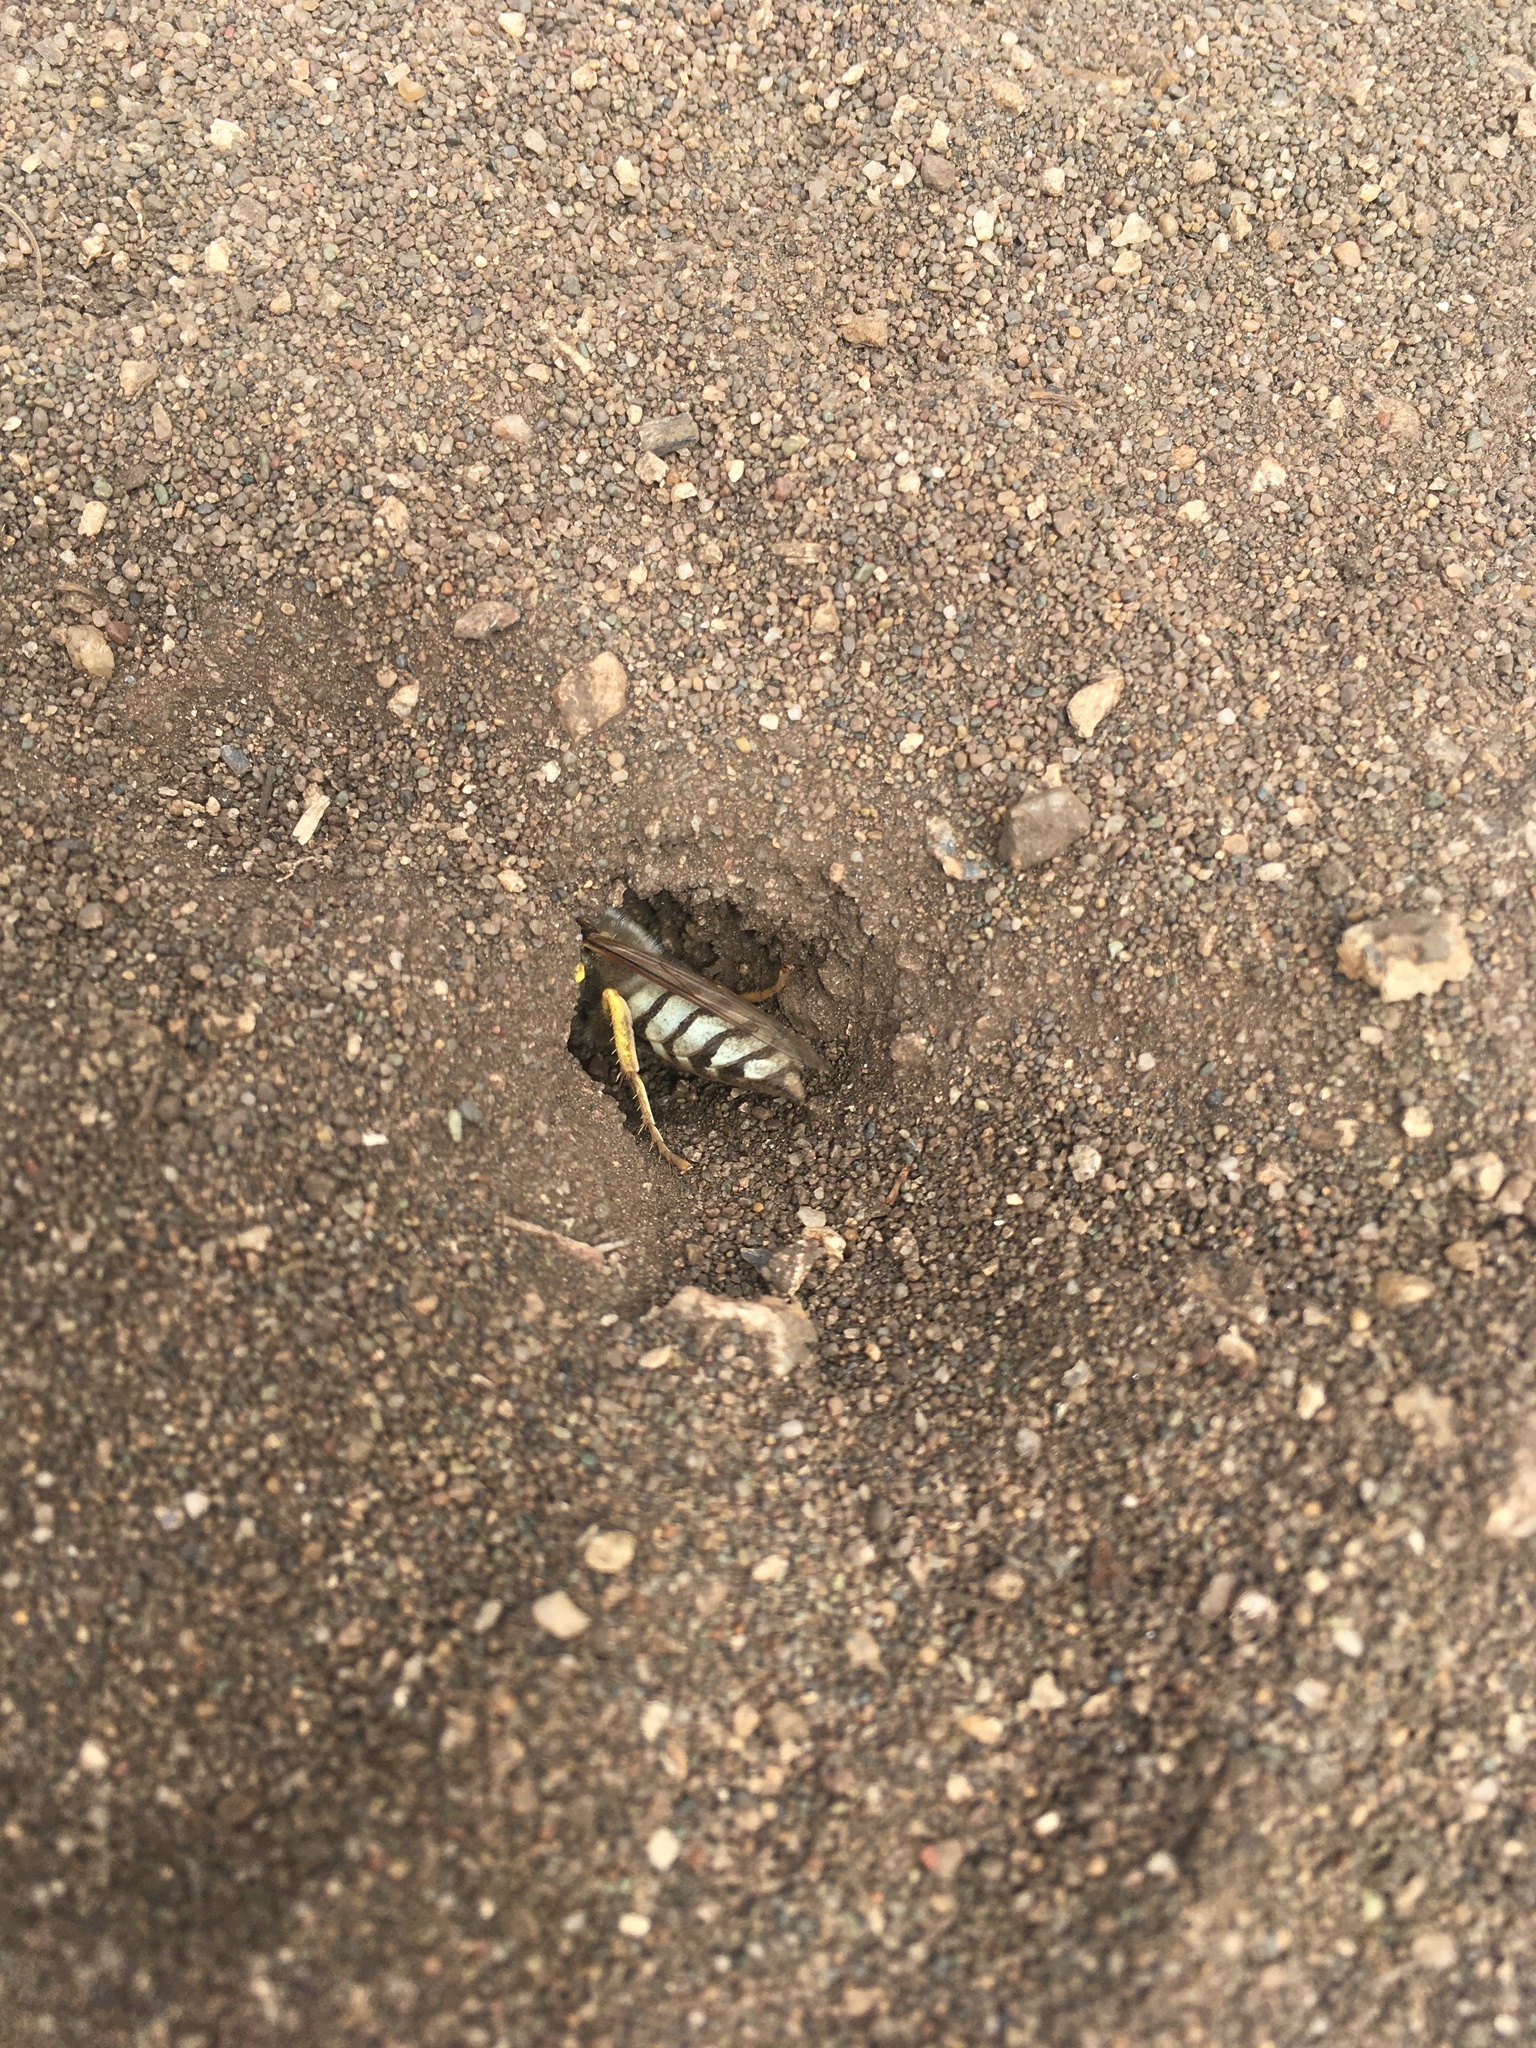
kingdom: Animalia
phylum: Arthropoda
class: Insecta
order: Hymenoptera
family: Crabronidae
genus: Bembix
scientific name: Bembix americana
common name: American sand wasp
